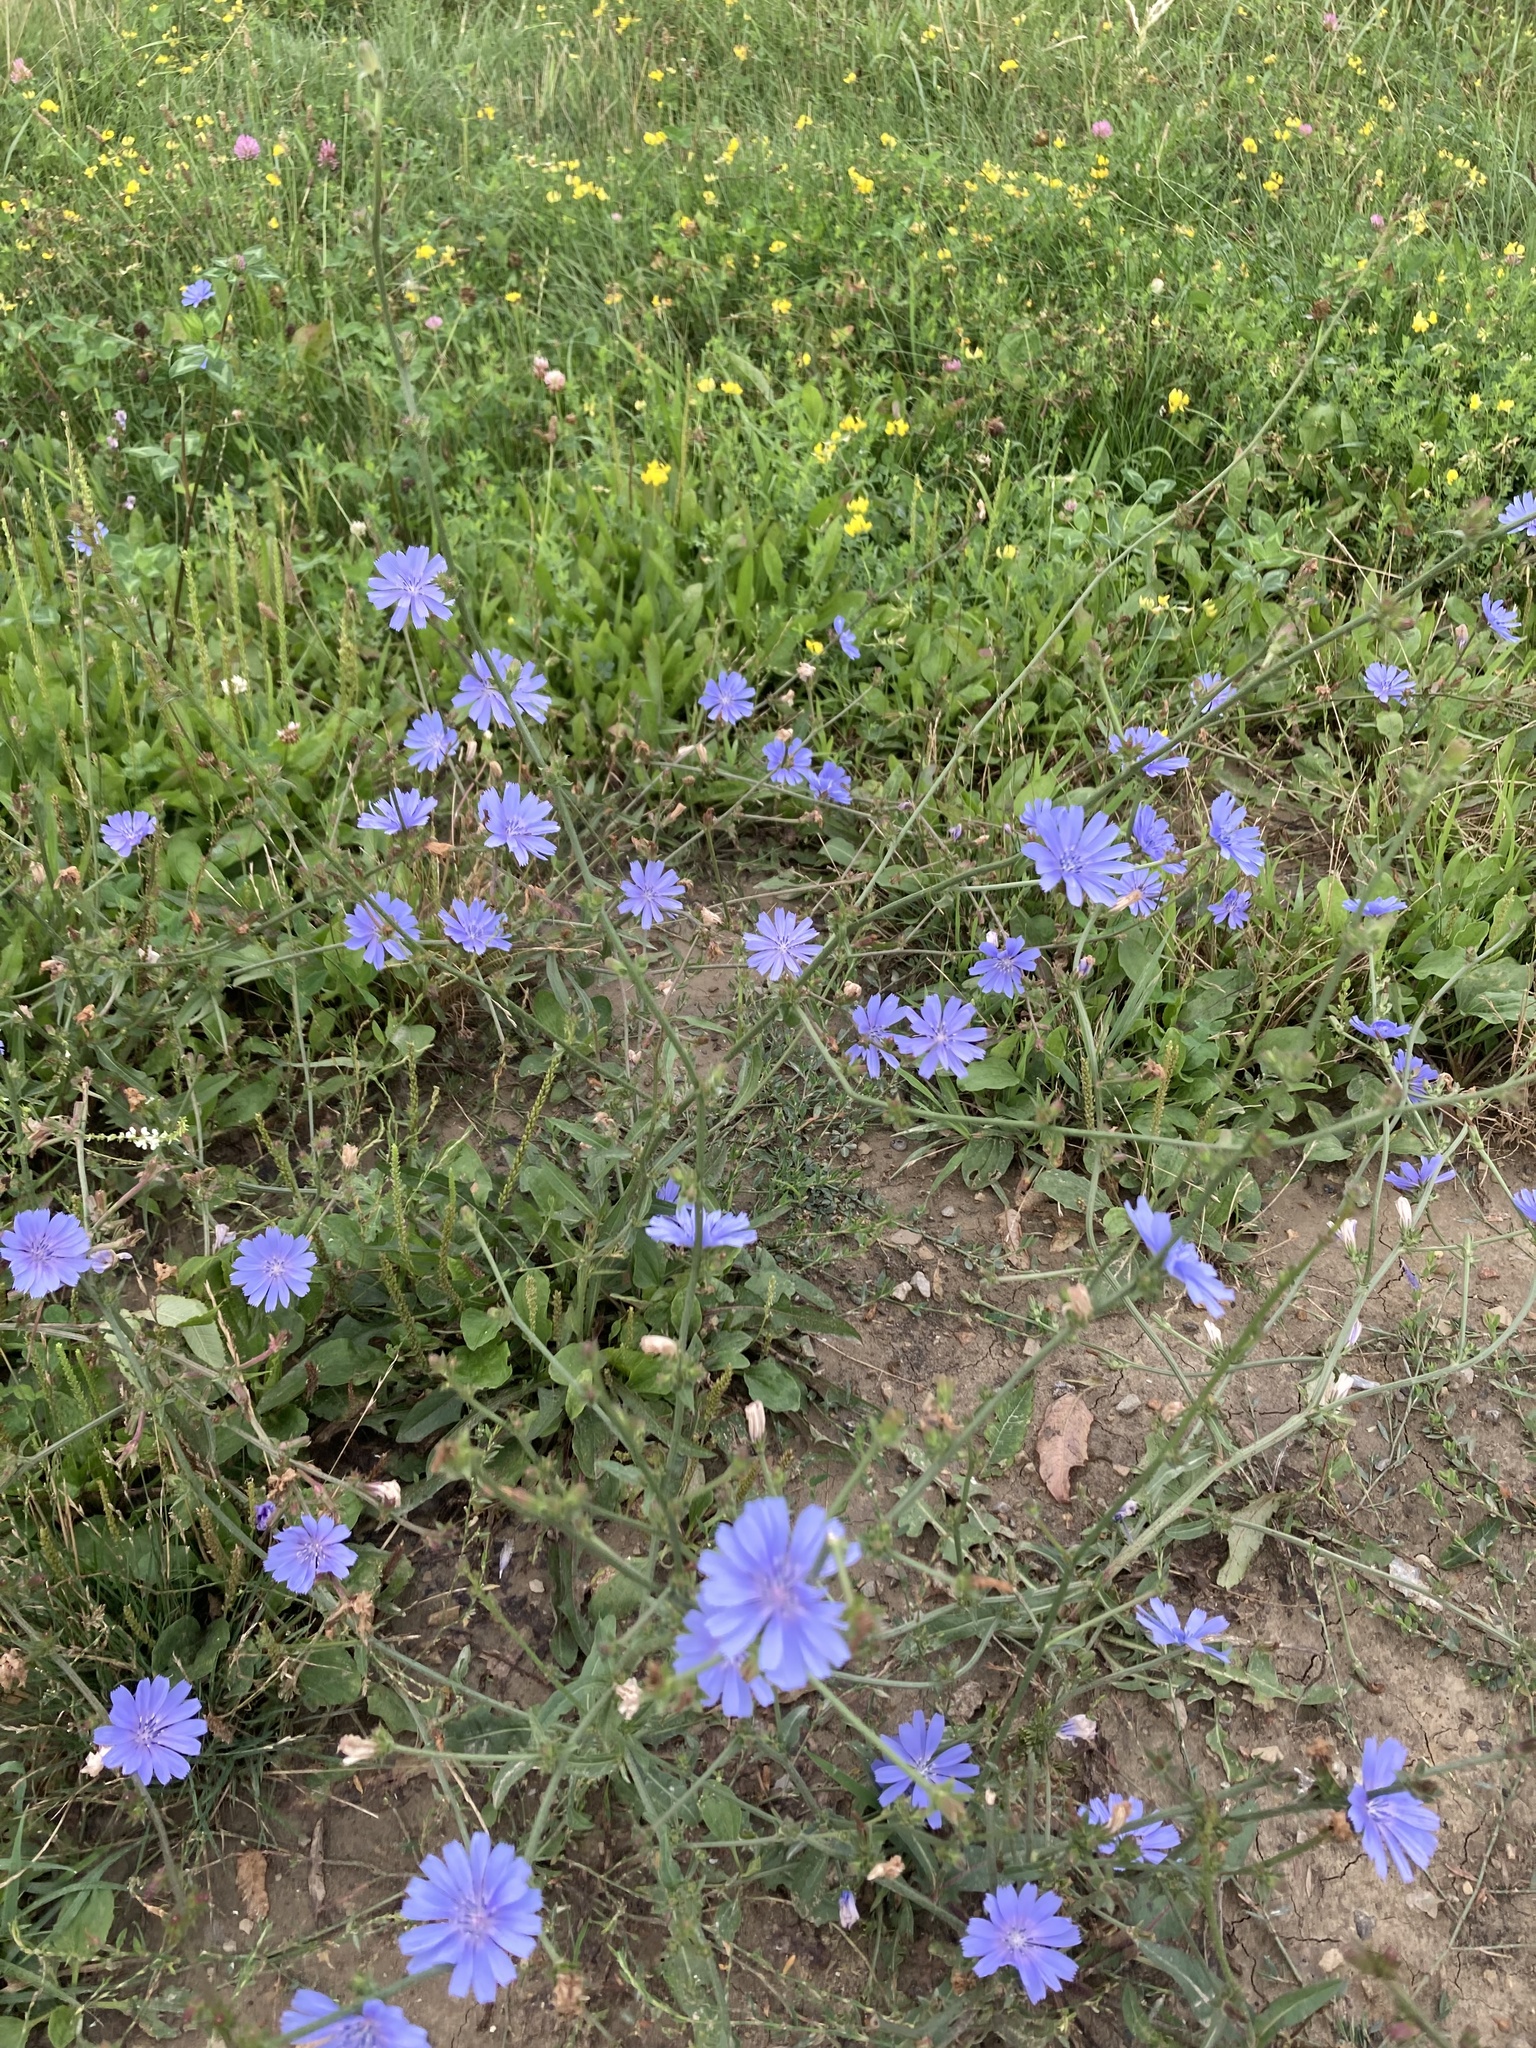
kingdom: Plantae
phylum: Tracheophyta
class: Magnoliopsida
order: Asterales
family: Asteraceae
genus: Cichorium
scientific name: Cichorium intybus
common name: Chicory
